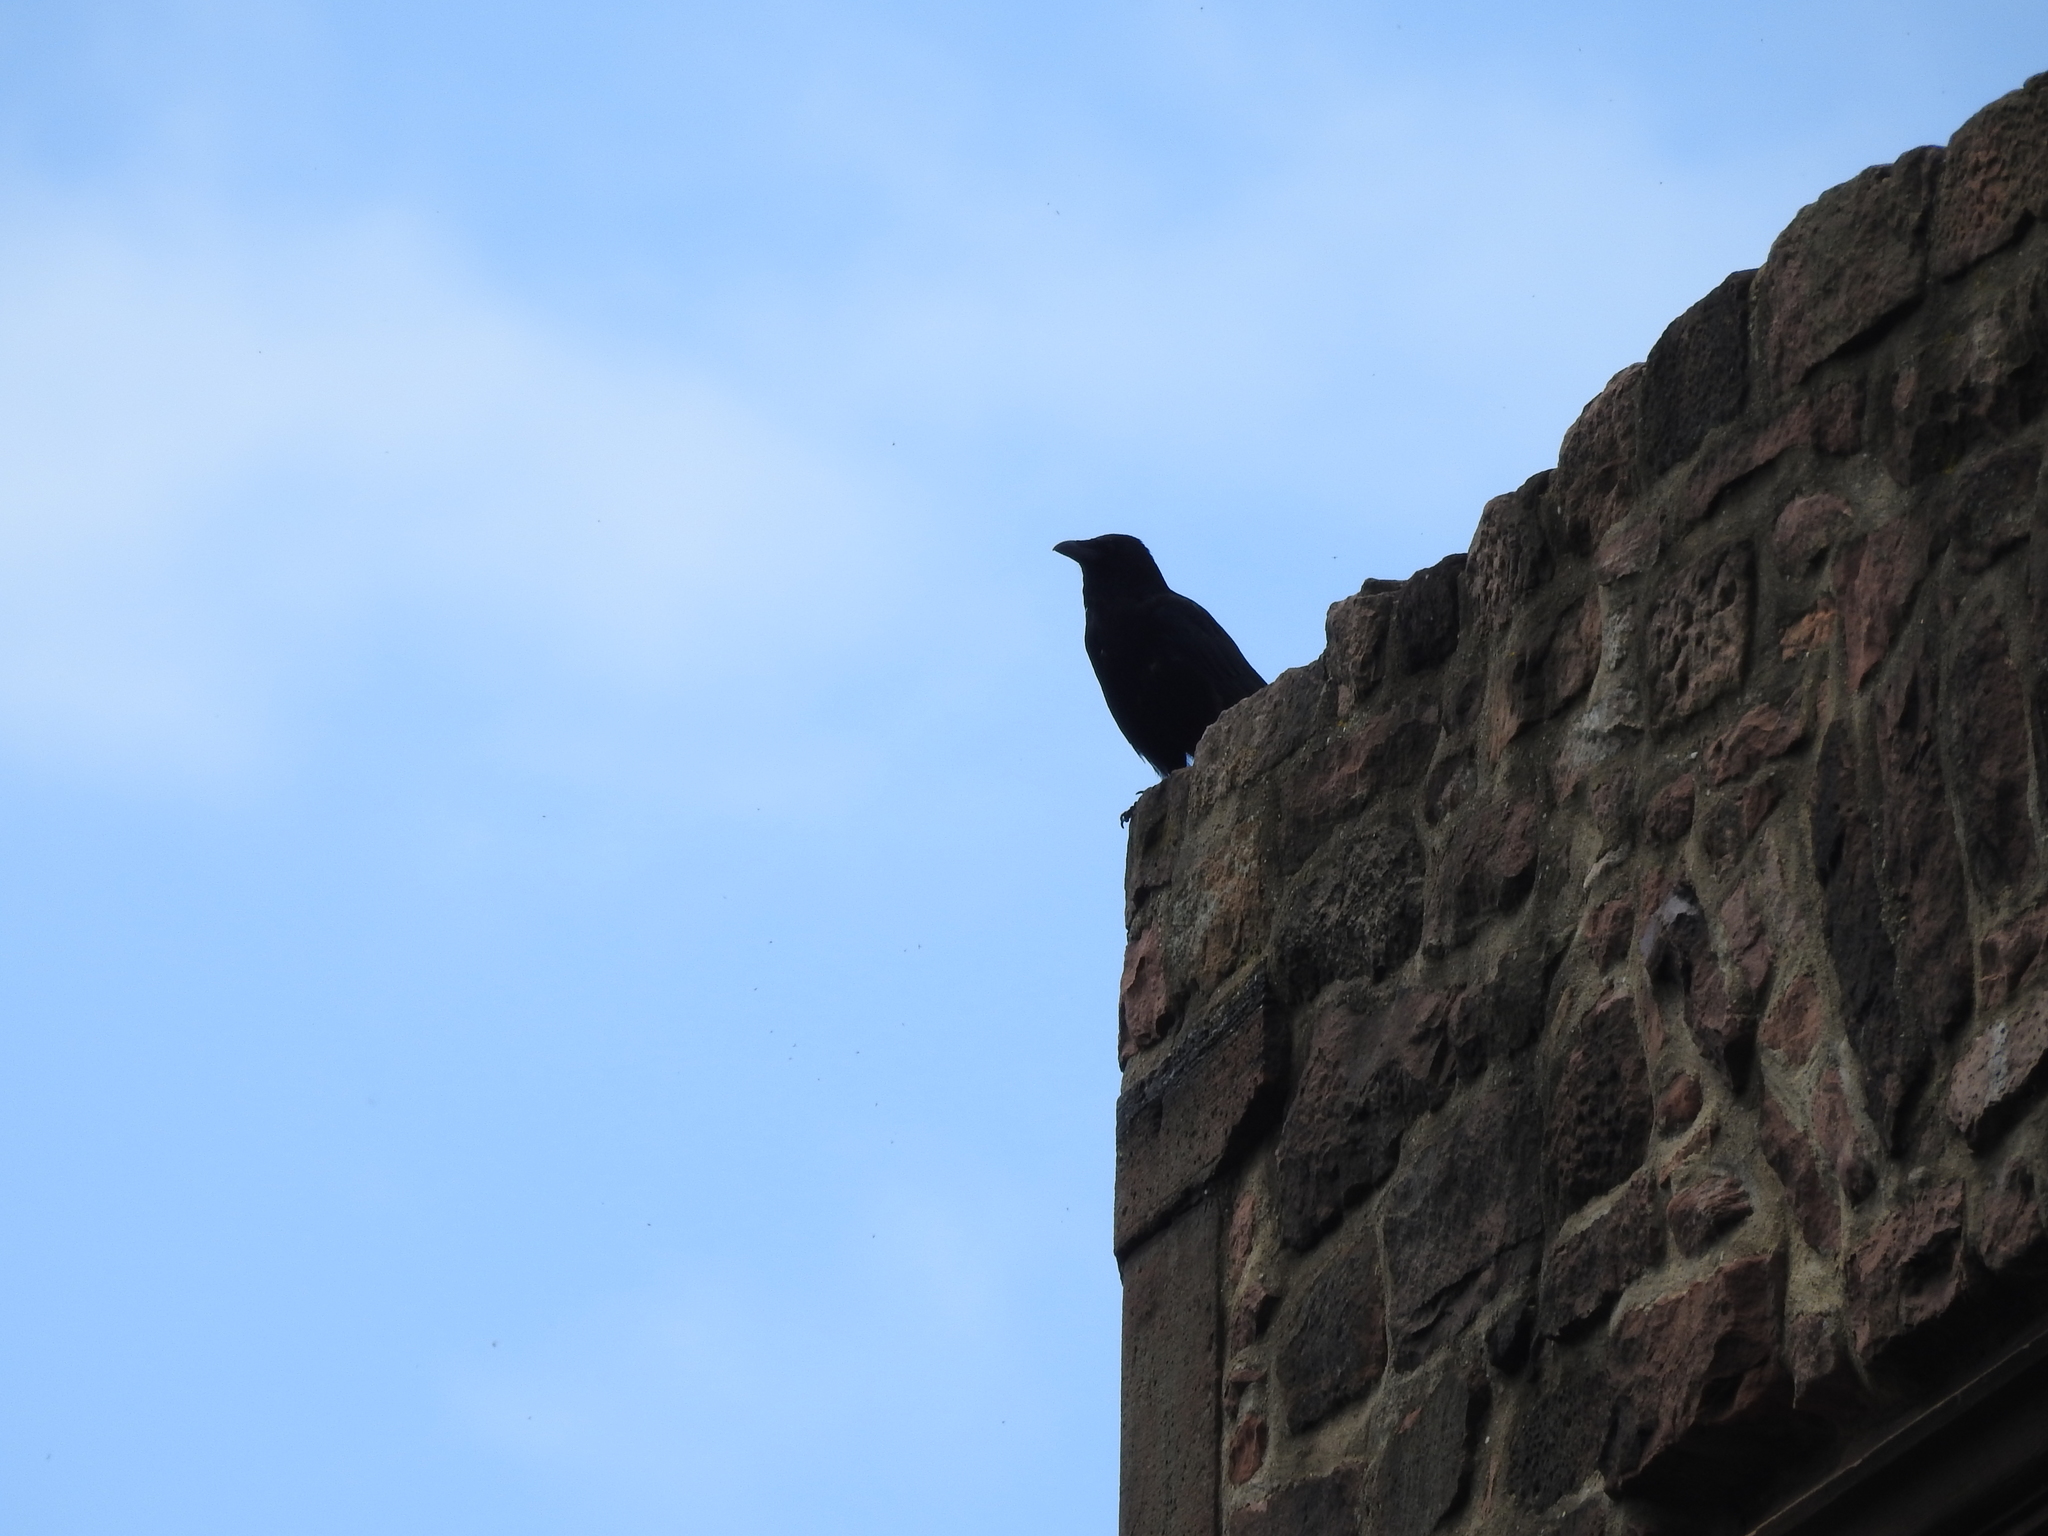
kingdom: Animalia
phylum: Chordata
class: Aves
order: Passeriformes
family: Corvidae
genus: Corvus
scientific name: Corvus corone
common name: Carrion crow
